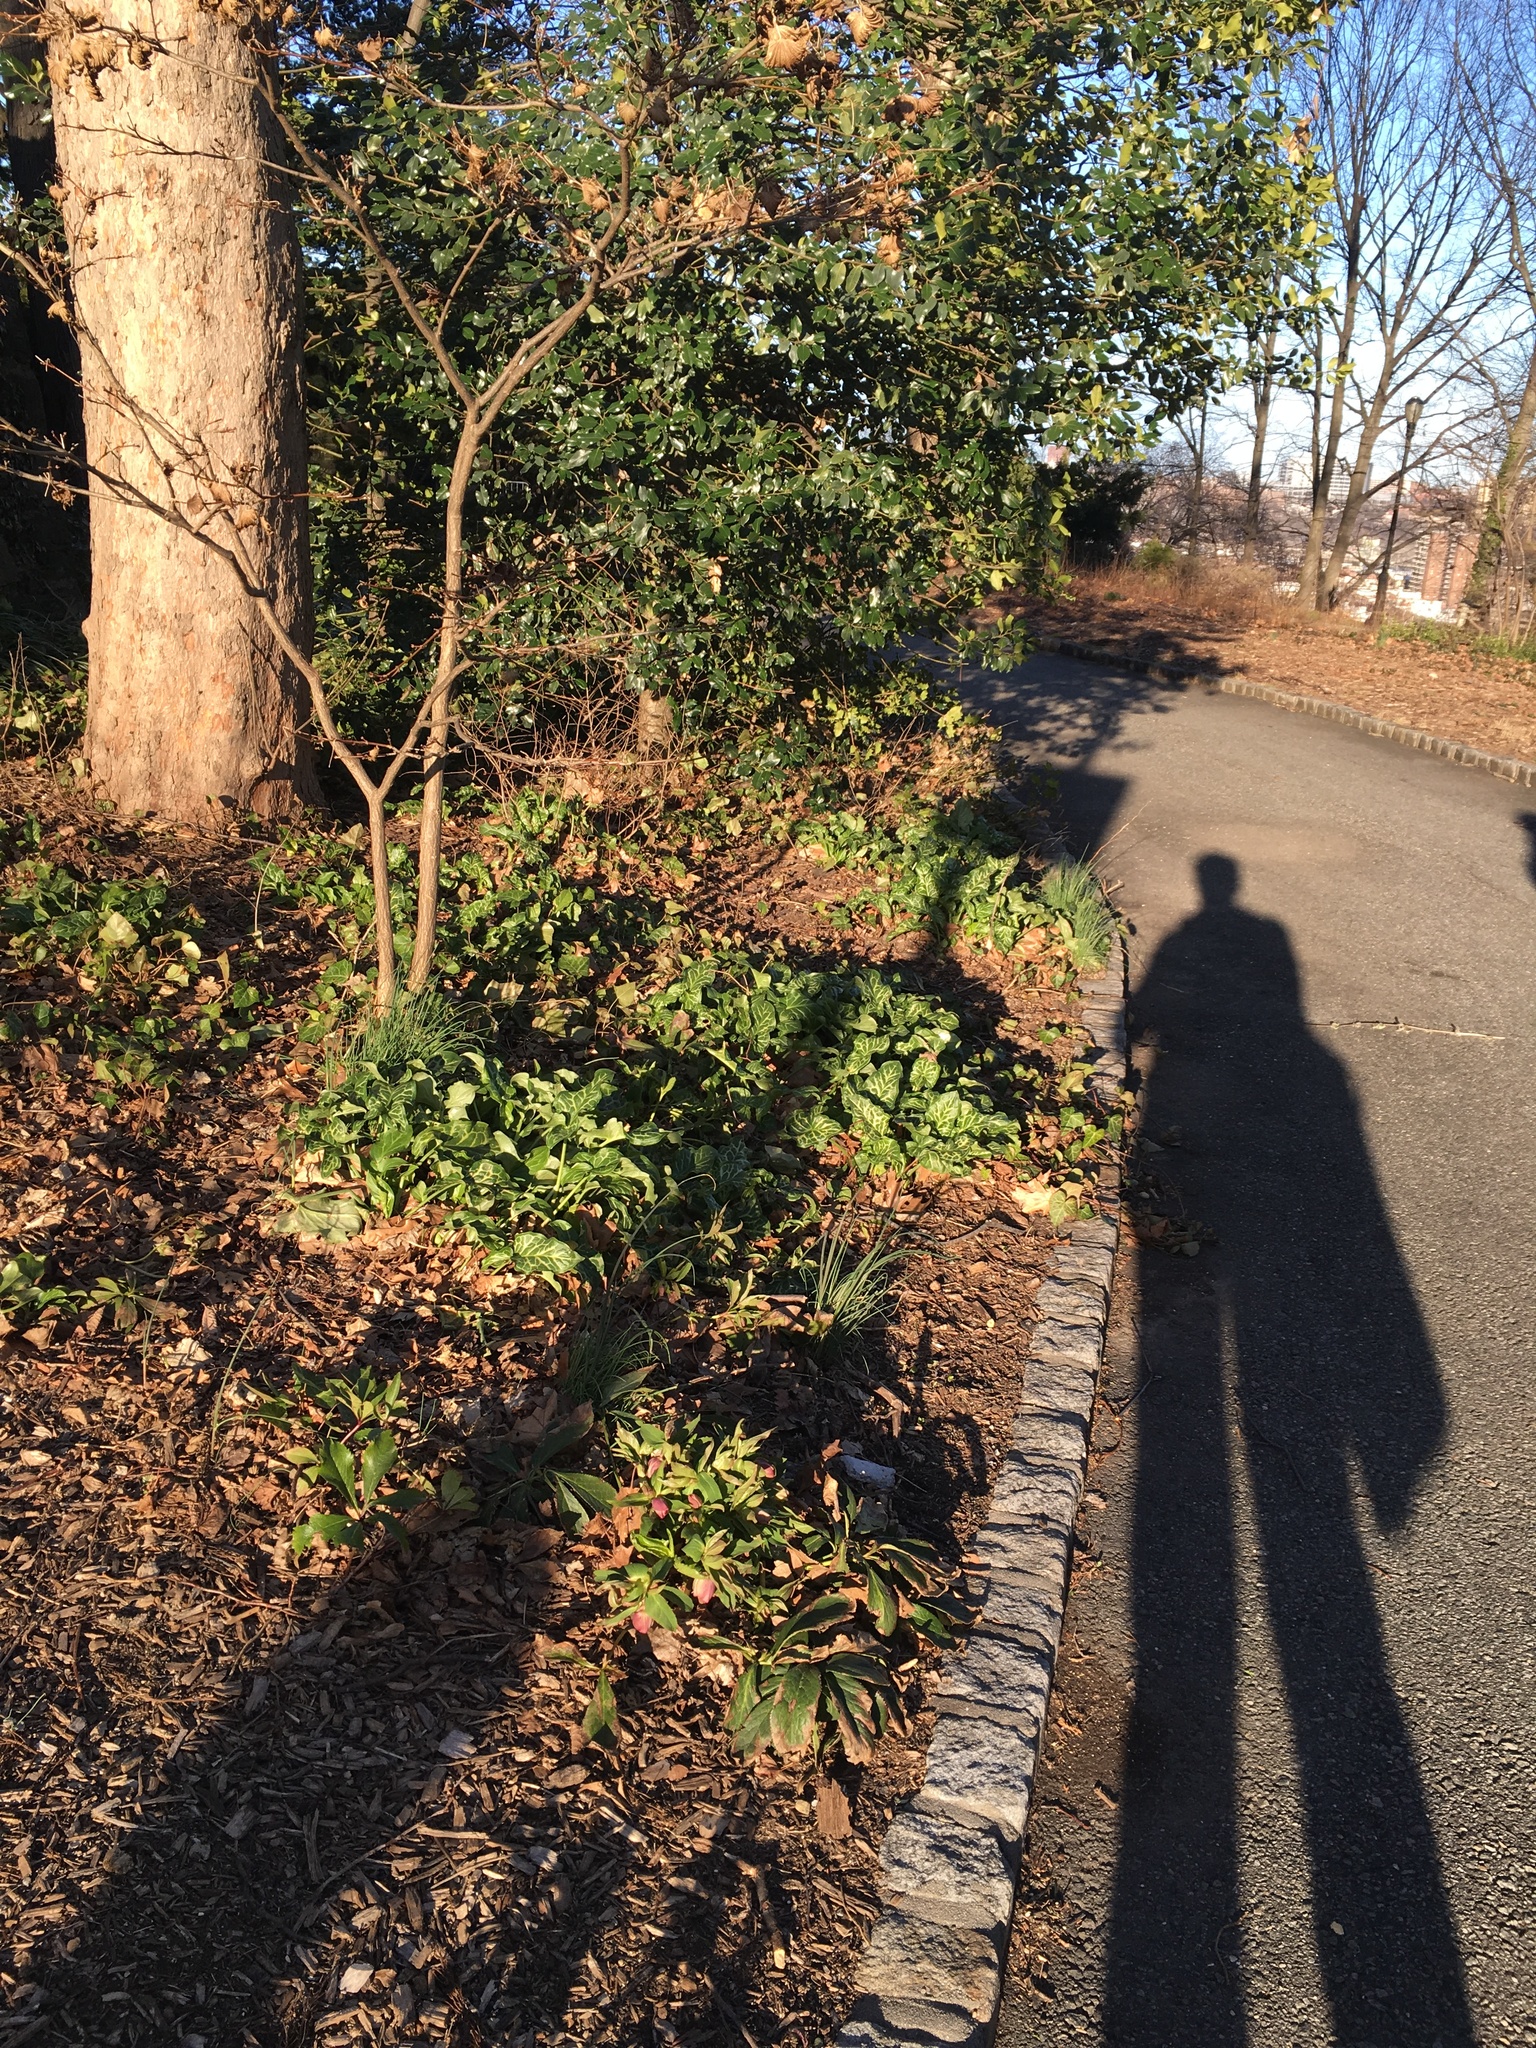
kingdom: Plantae
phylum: Tracheophyta
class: Liliopsida
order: Alismatales
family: Araceae
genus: Arum
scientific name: Arum italicum
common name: Italian lords-and-ladies
